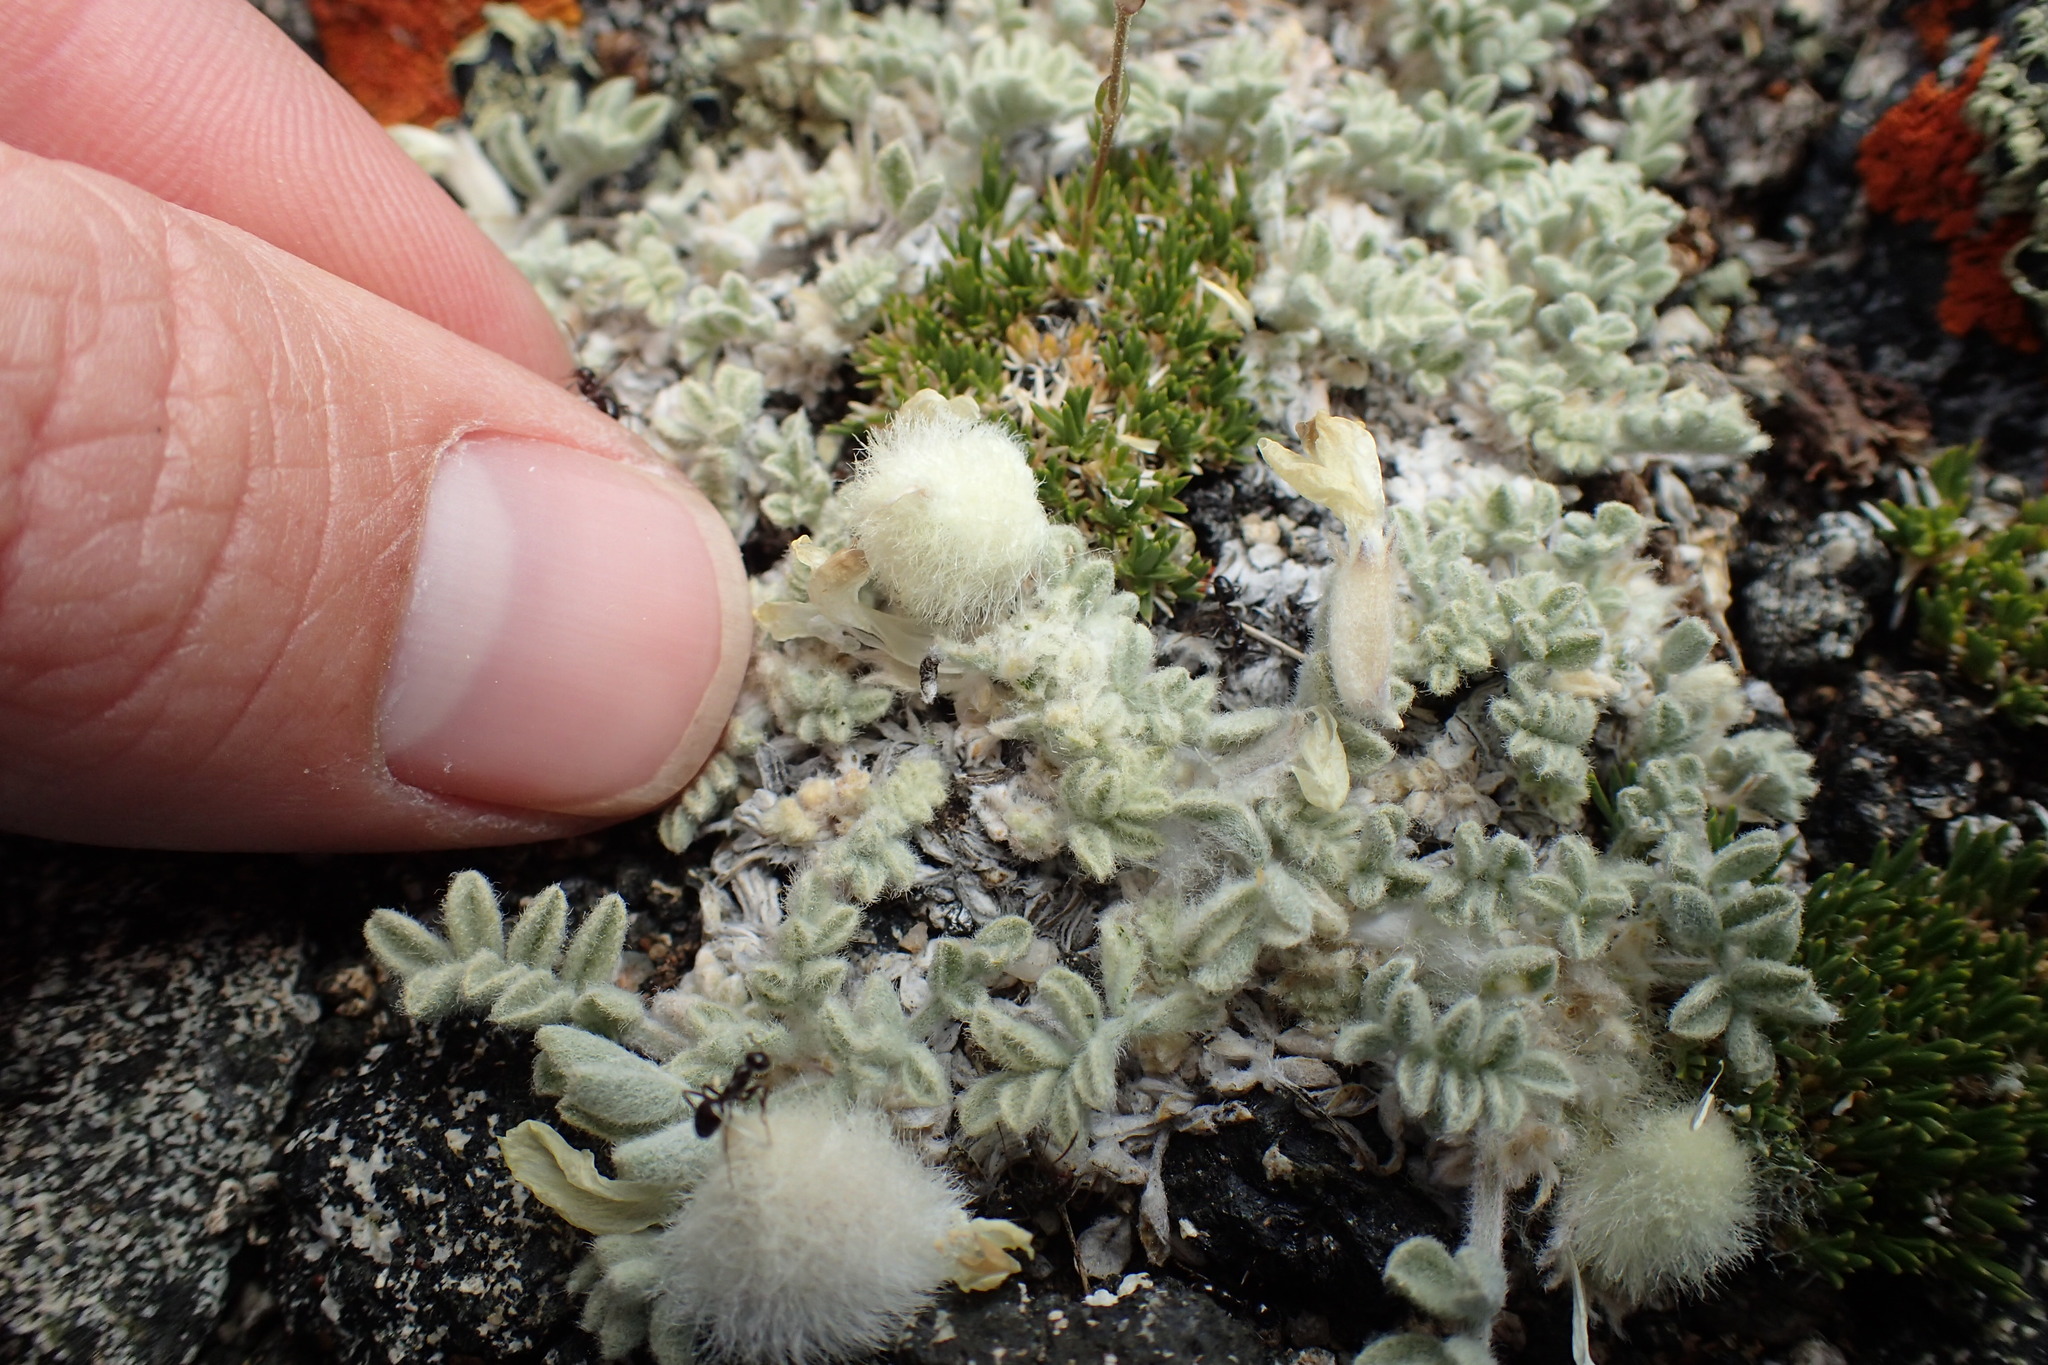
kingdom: Plantae
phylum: Tracheophyta
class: Magnoliopsida
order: Fabales
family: Fabaceae
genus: Astragalus
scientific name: Astragalus purshii
